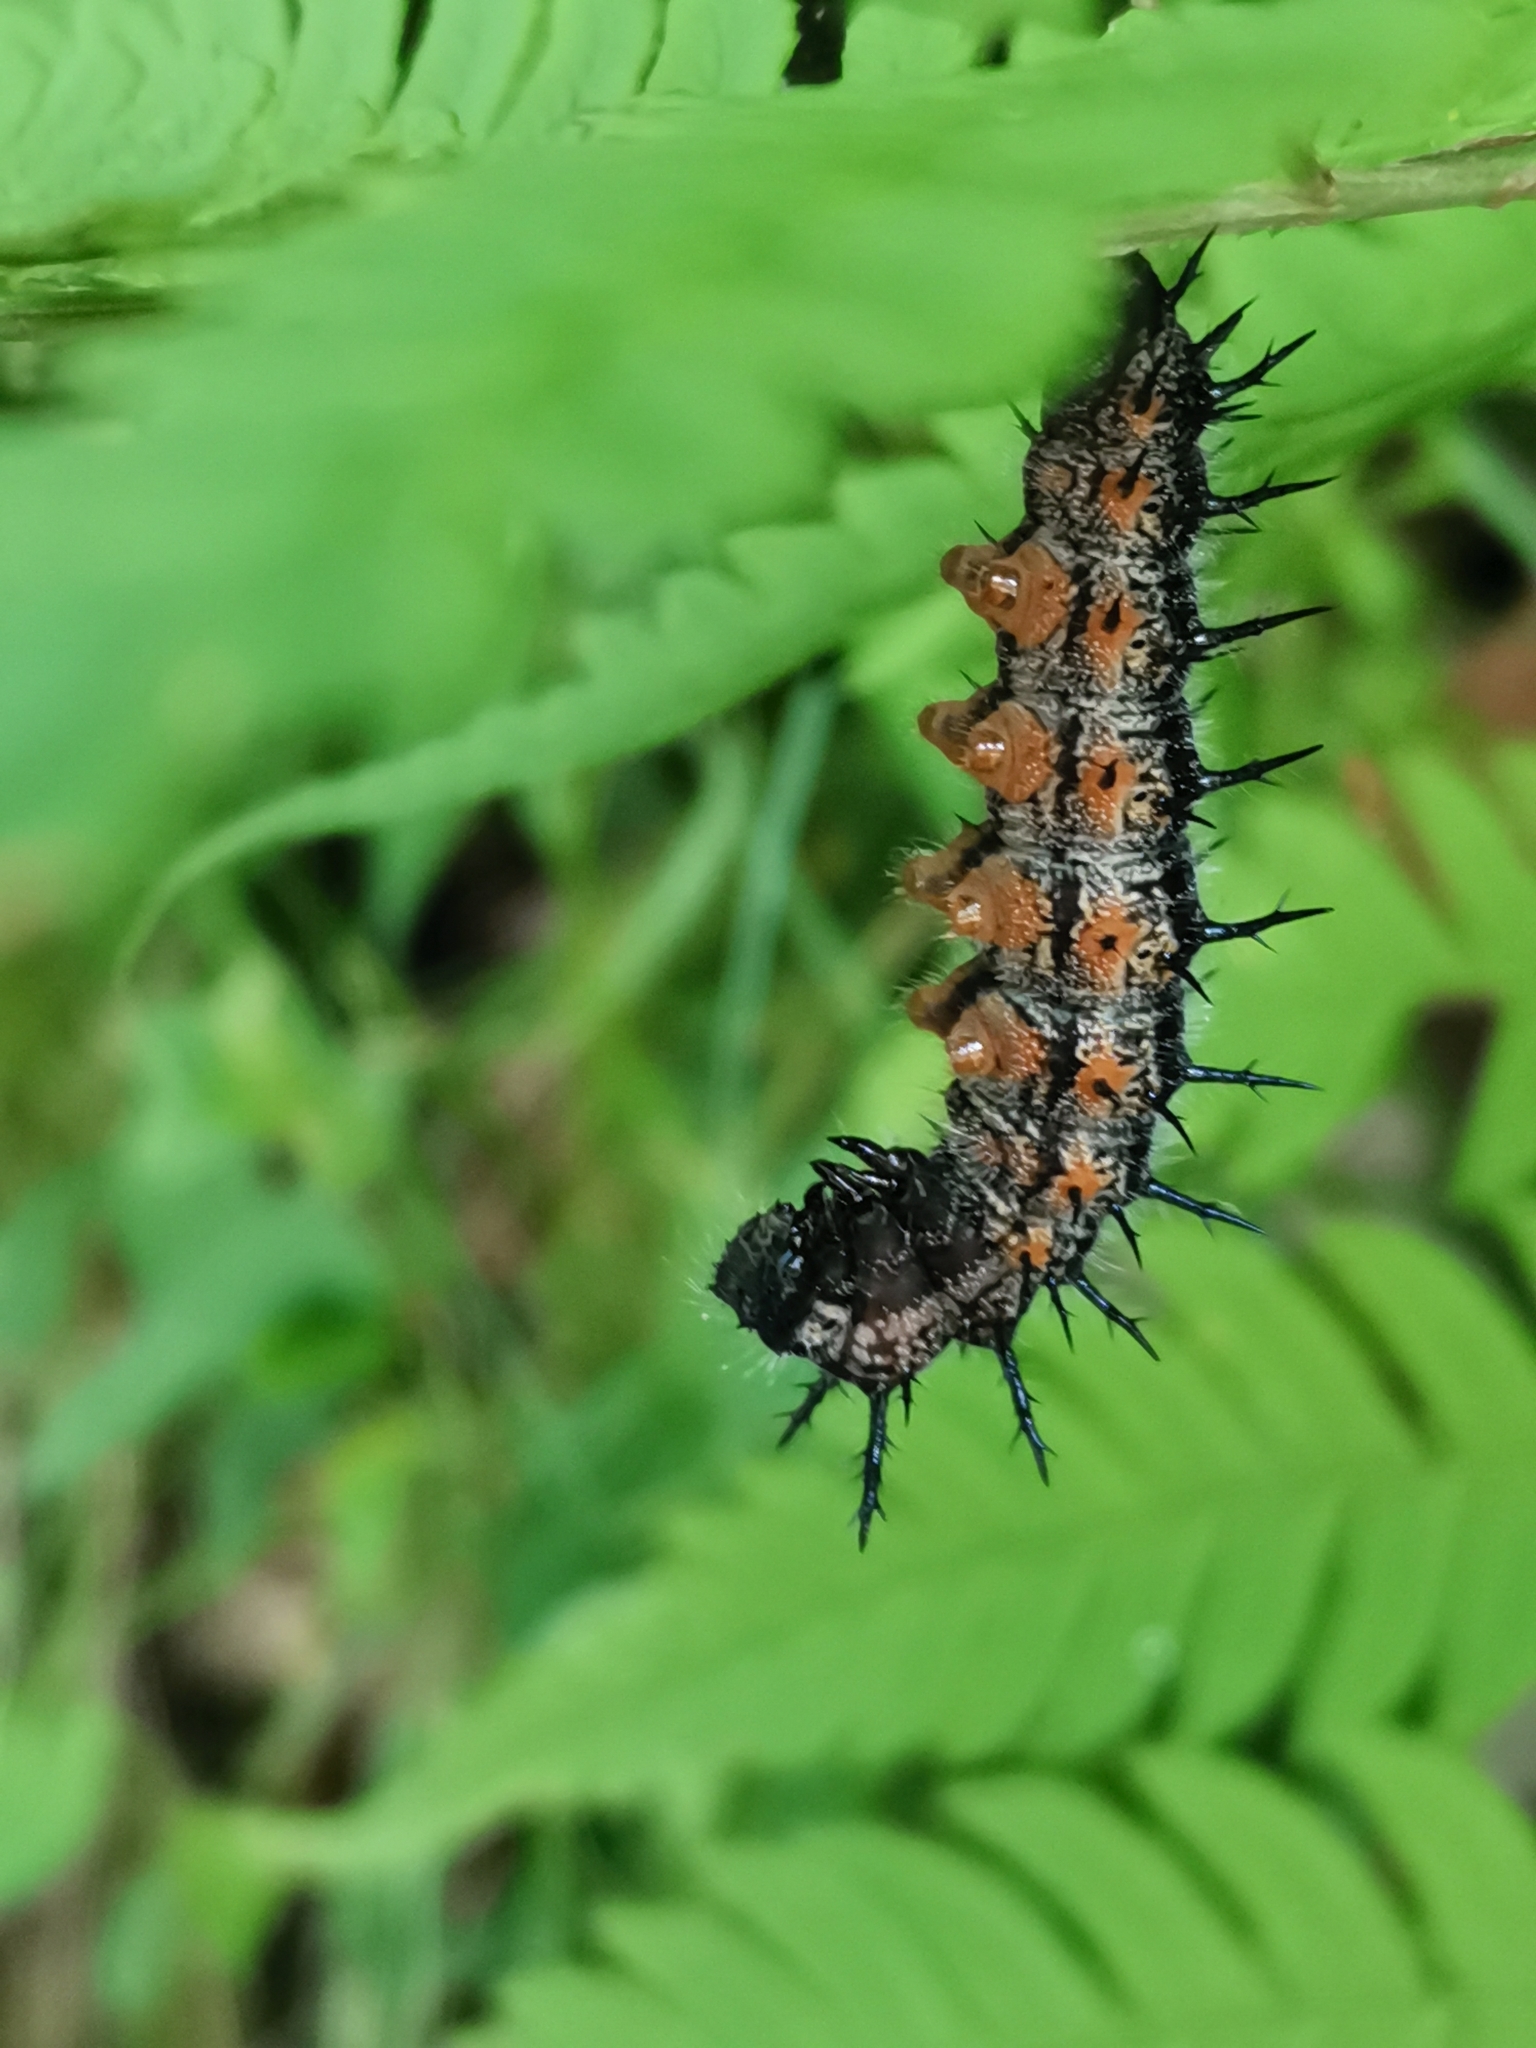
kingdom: Animalia
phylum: Arthropoda
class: Insecta
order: Lepidoptera
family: Nymphalidae
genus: Nymphalis
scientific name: Nymphalis xanthomelas
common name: Scarce tortoiseshell
